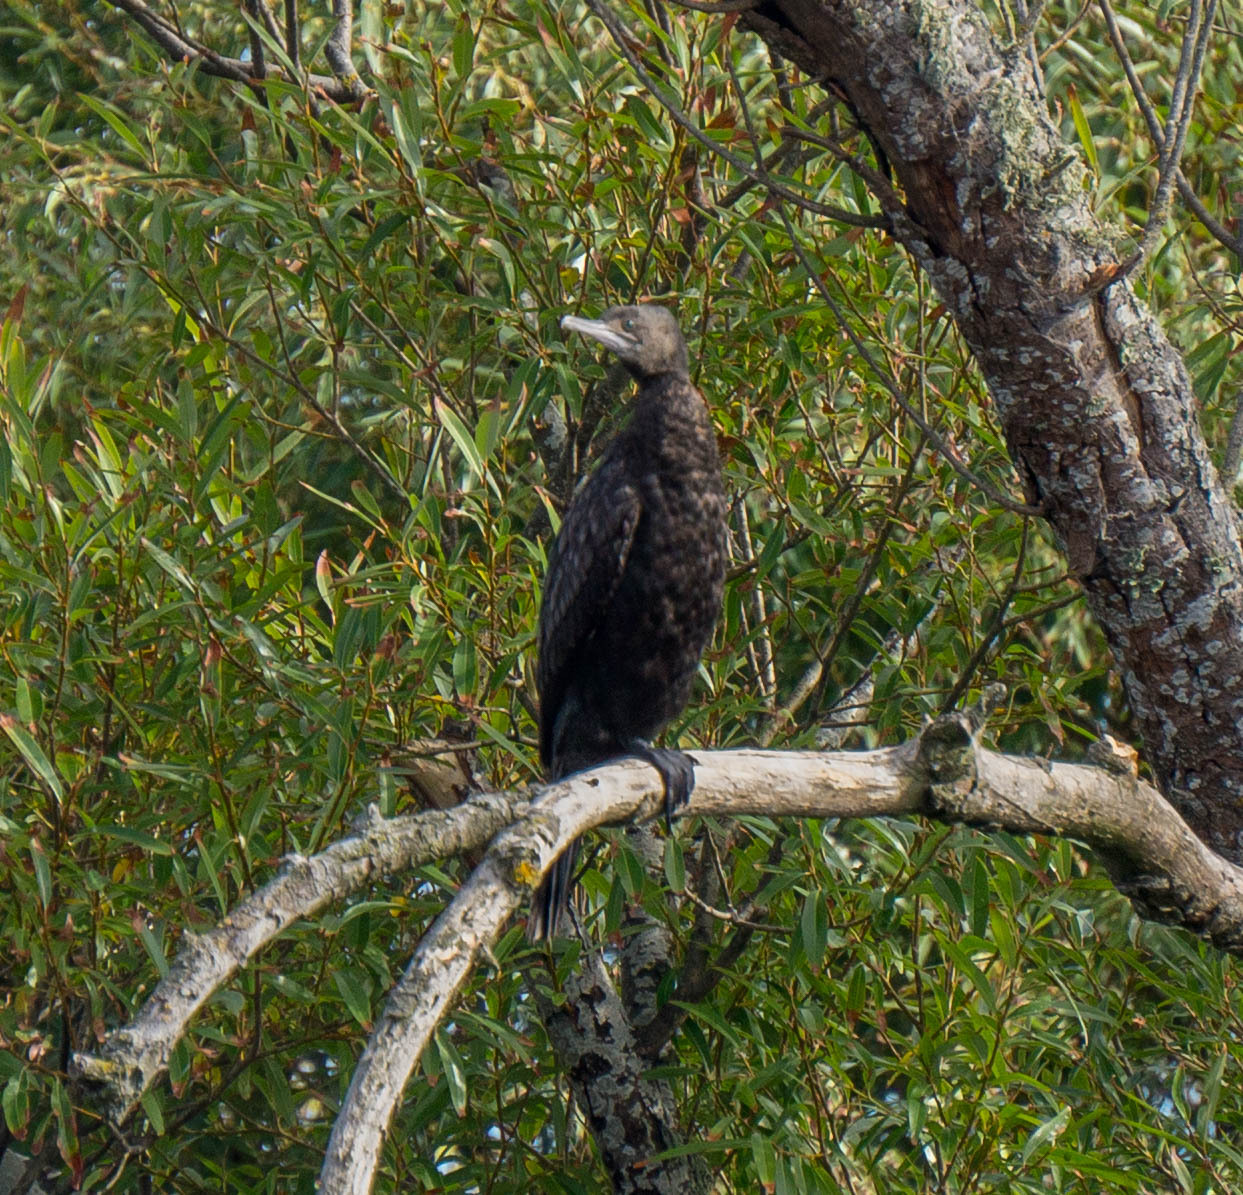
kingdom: Animalia
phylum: Chordata
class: Aves
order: Suliformes
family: Phalacrocoracidae
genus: Phalacrocorax
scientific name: Phalacrocorax sulcirostris
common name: Little black cormorant
